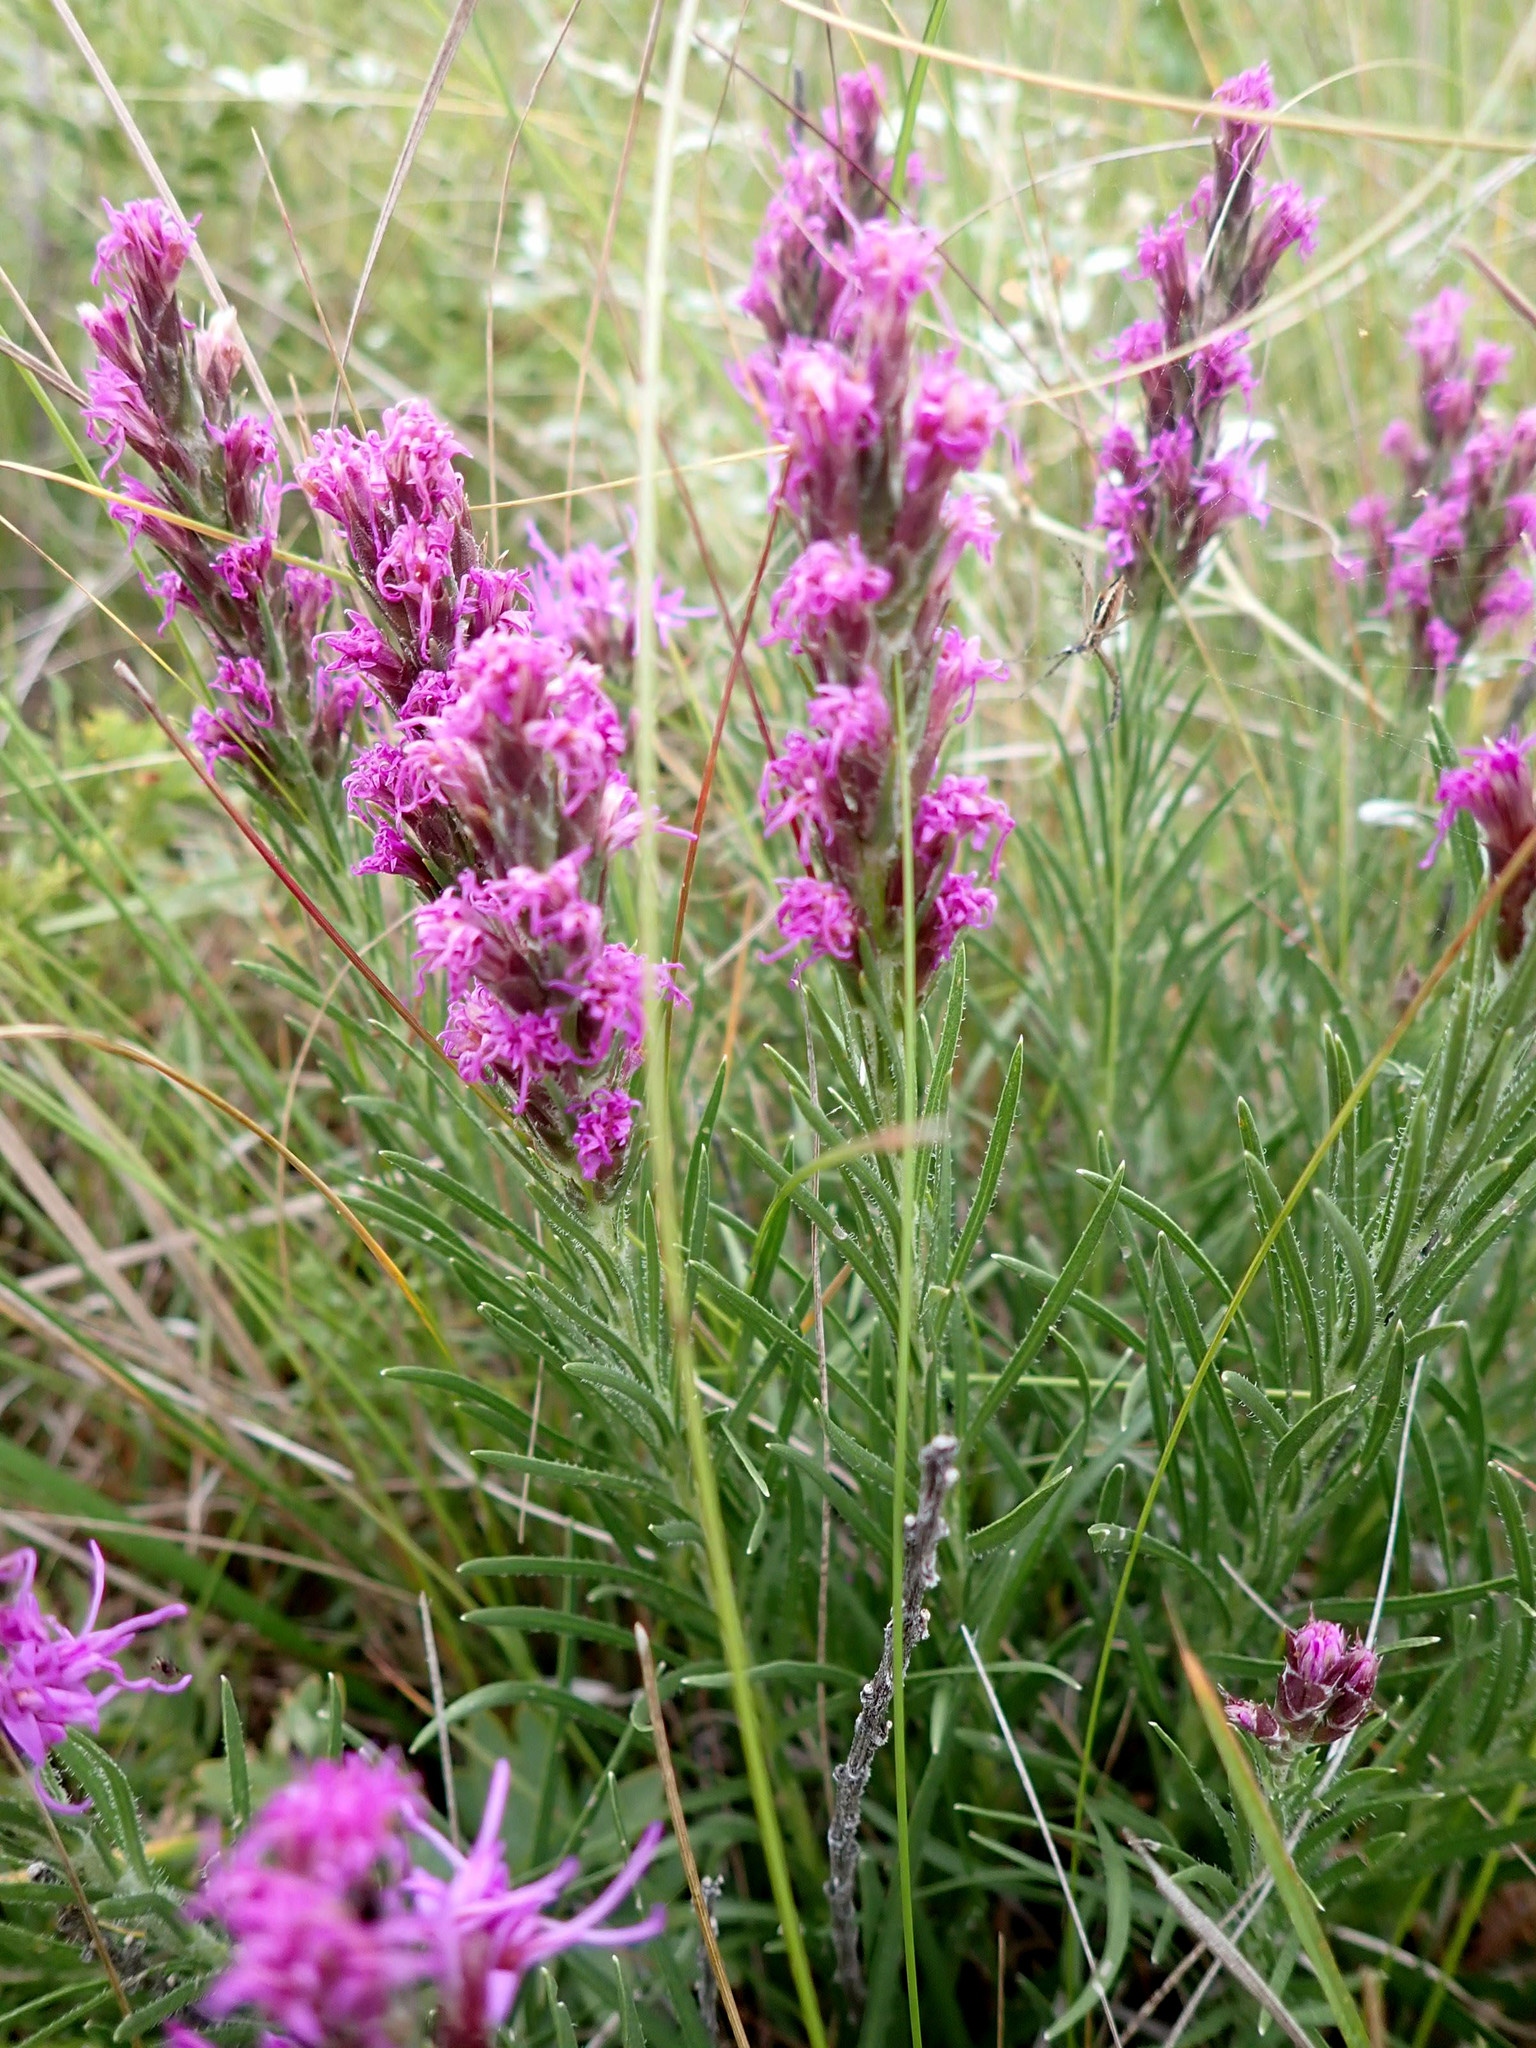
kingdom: Plantae
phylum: Tracheophyta
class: Magnoliopsida
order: Asterales
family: Asteraceae
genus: Liatris
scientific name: Liatris punctata
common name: Dotted gayfeather
